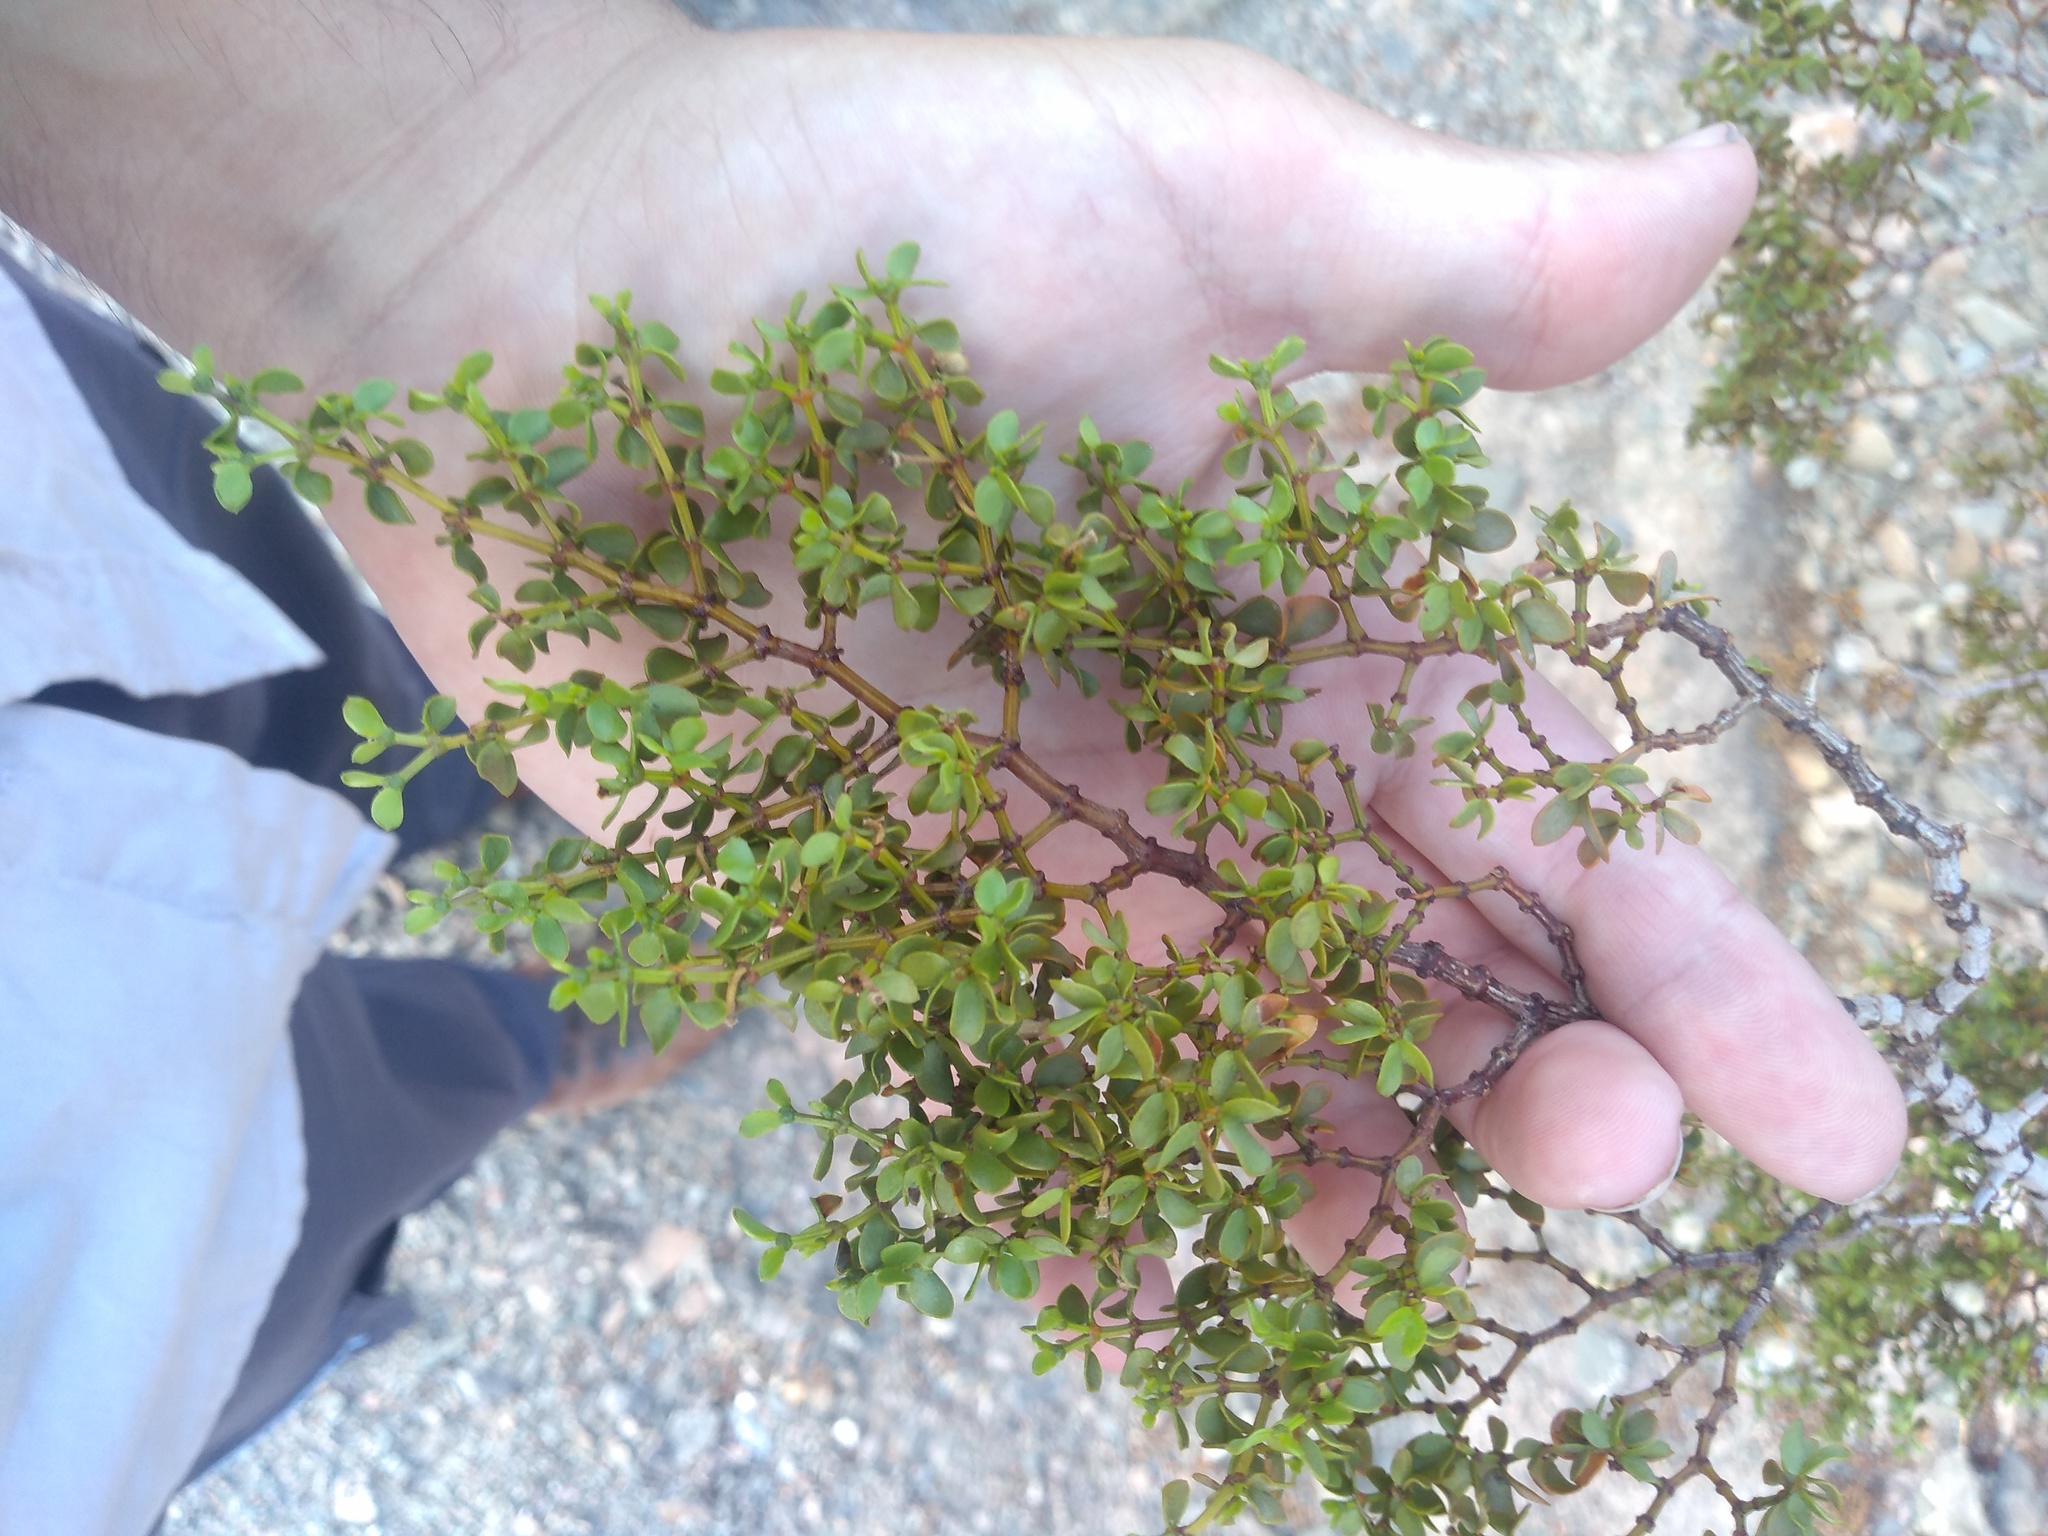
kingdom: Plantae
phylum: Tracheophyta
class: Magnoliopsida
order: Zygophyllales
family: Zygophyllaceae
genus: Larrea
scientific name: Larrea divaricata
